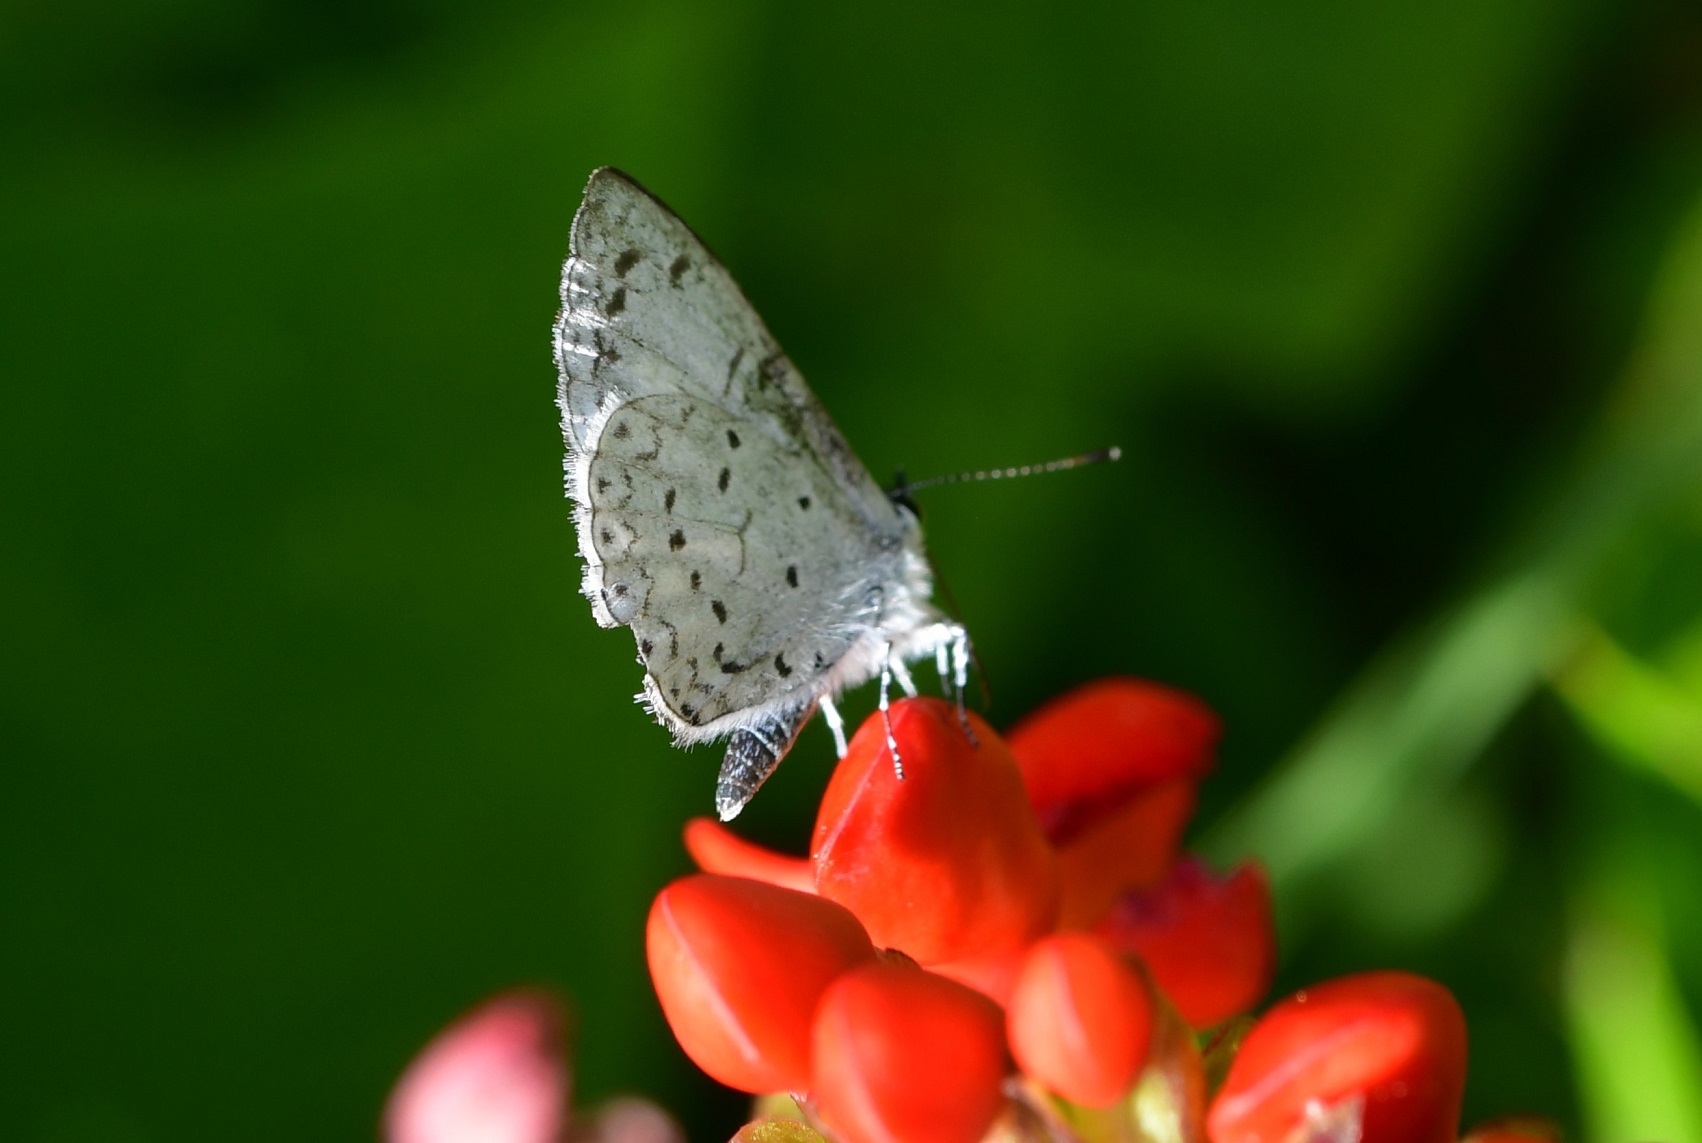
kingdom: Animalia
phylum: Arthropoda
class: Insecta
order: Lepidoptera
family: Lycaenidae
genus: Celastrina
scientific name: Celastrina ladon
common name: Spring azure
